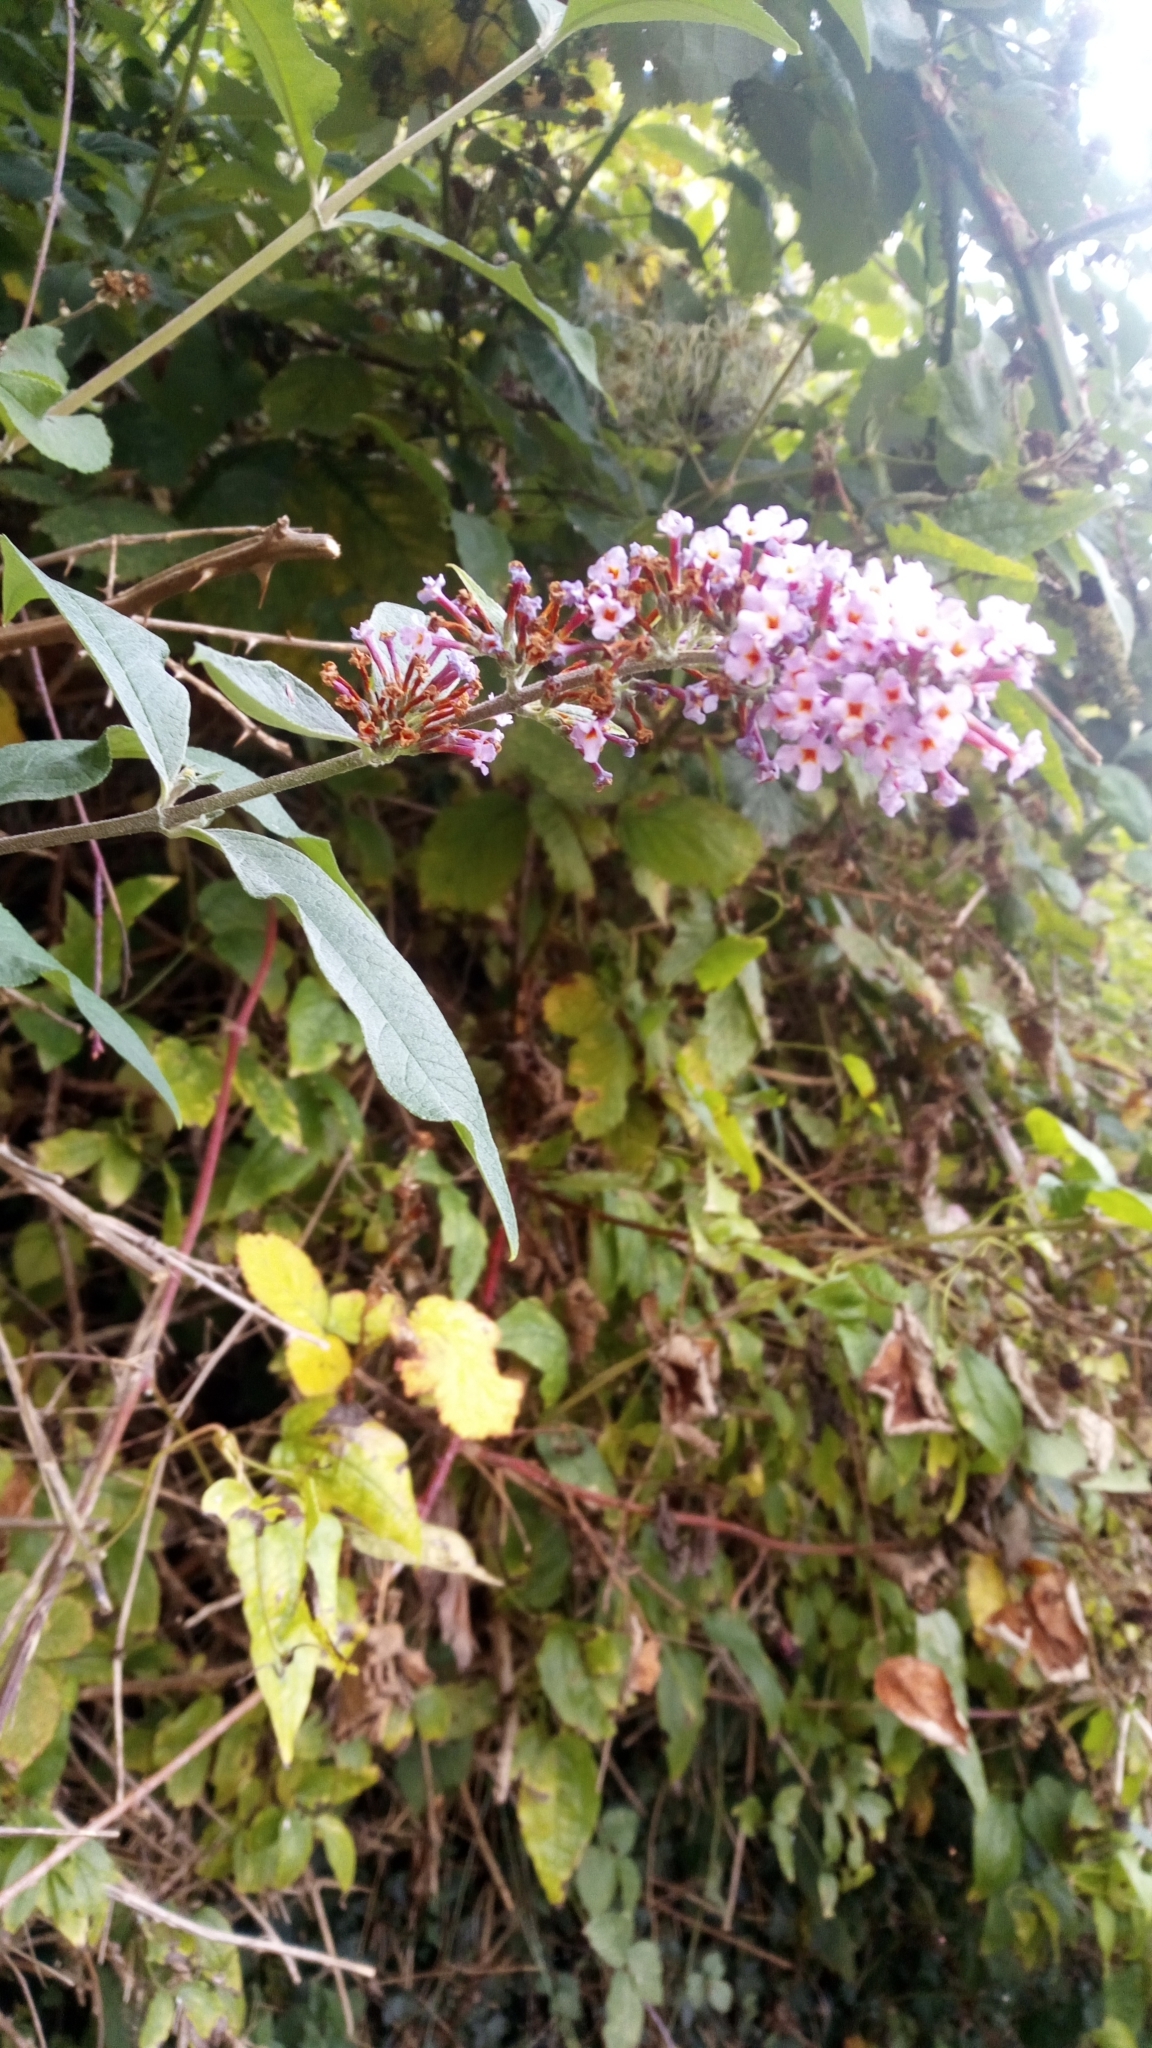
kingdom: Plantae
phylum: Tracheophyta
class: Magnoliopsida
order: Lamiales
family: Scrophulariaceae
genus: Buddleja
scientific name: Buddleja davidii
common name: Butterfly-bush
